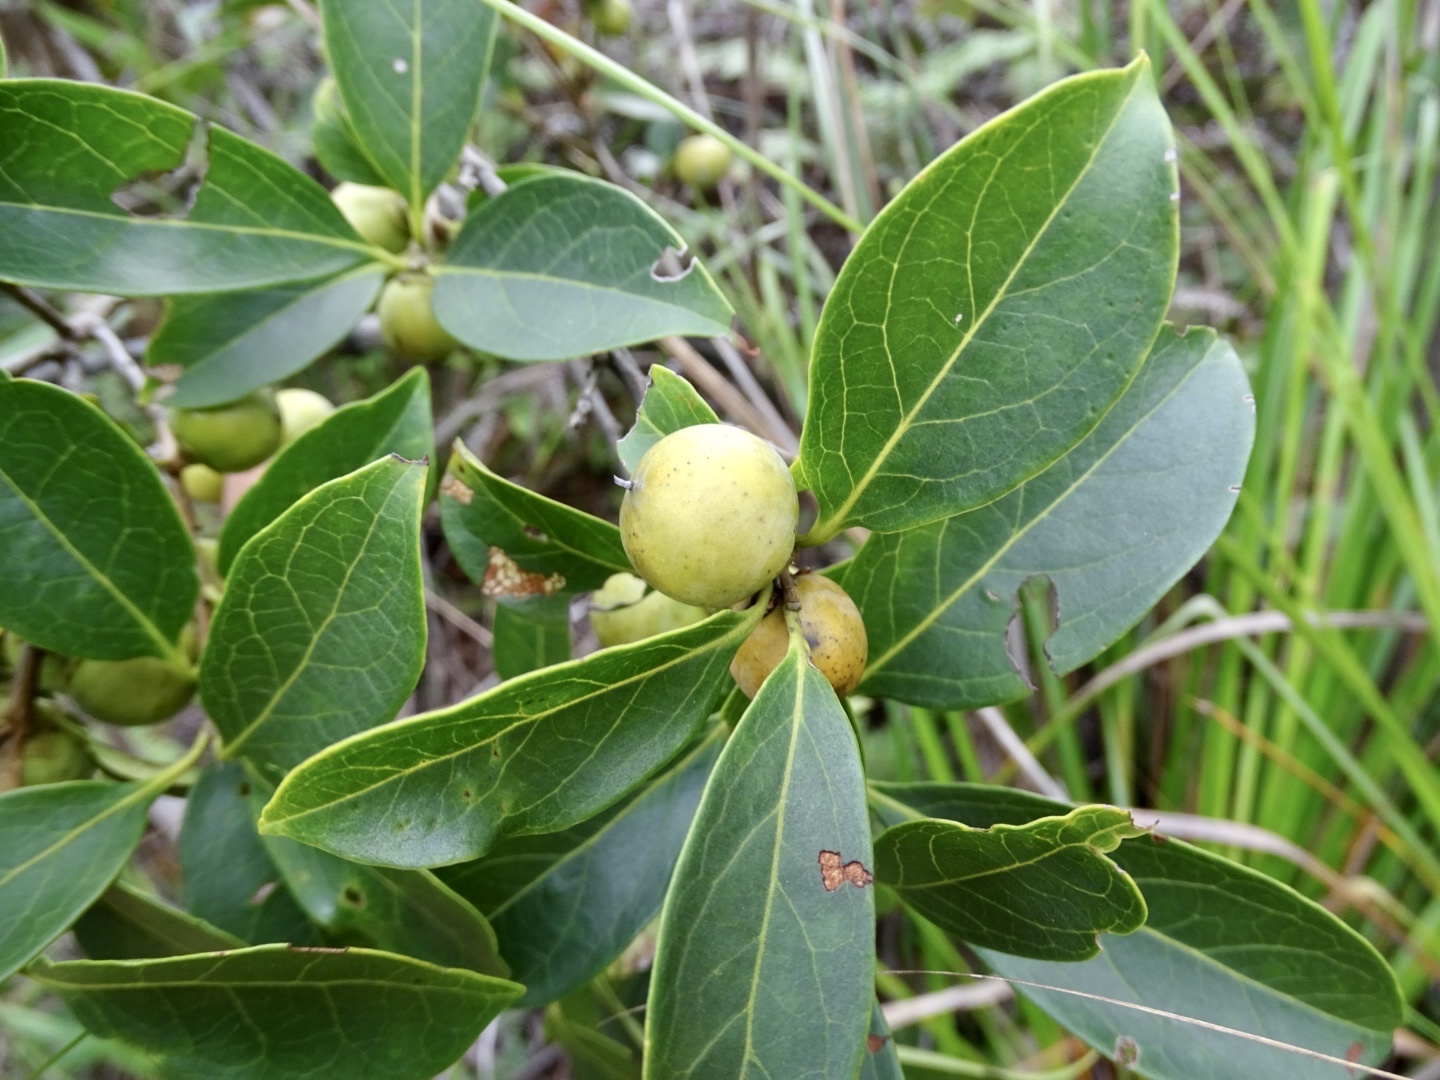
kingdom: Plantae
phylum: Tracheophyta
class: Magnoliopsida
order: Ericales
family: Ebenaceae
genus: Diospyros
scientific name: Diospyros morrisiana
